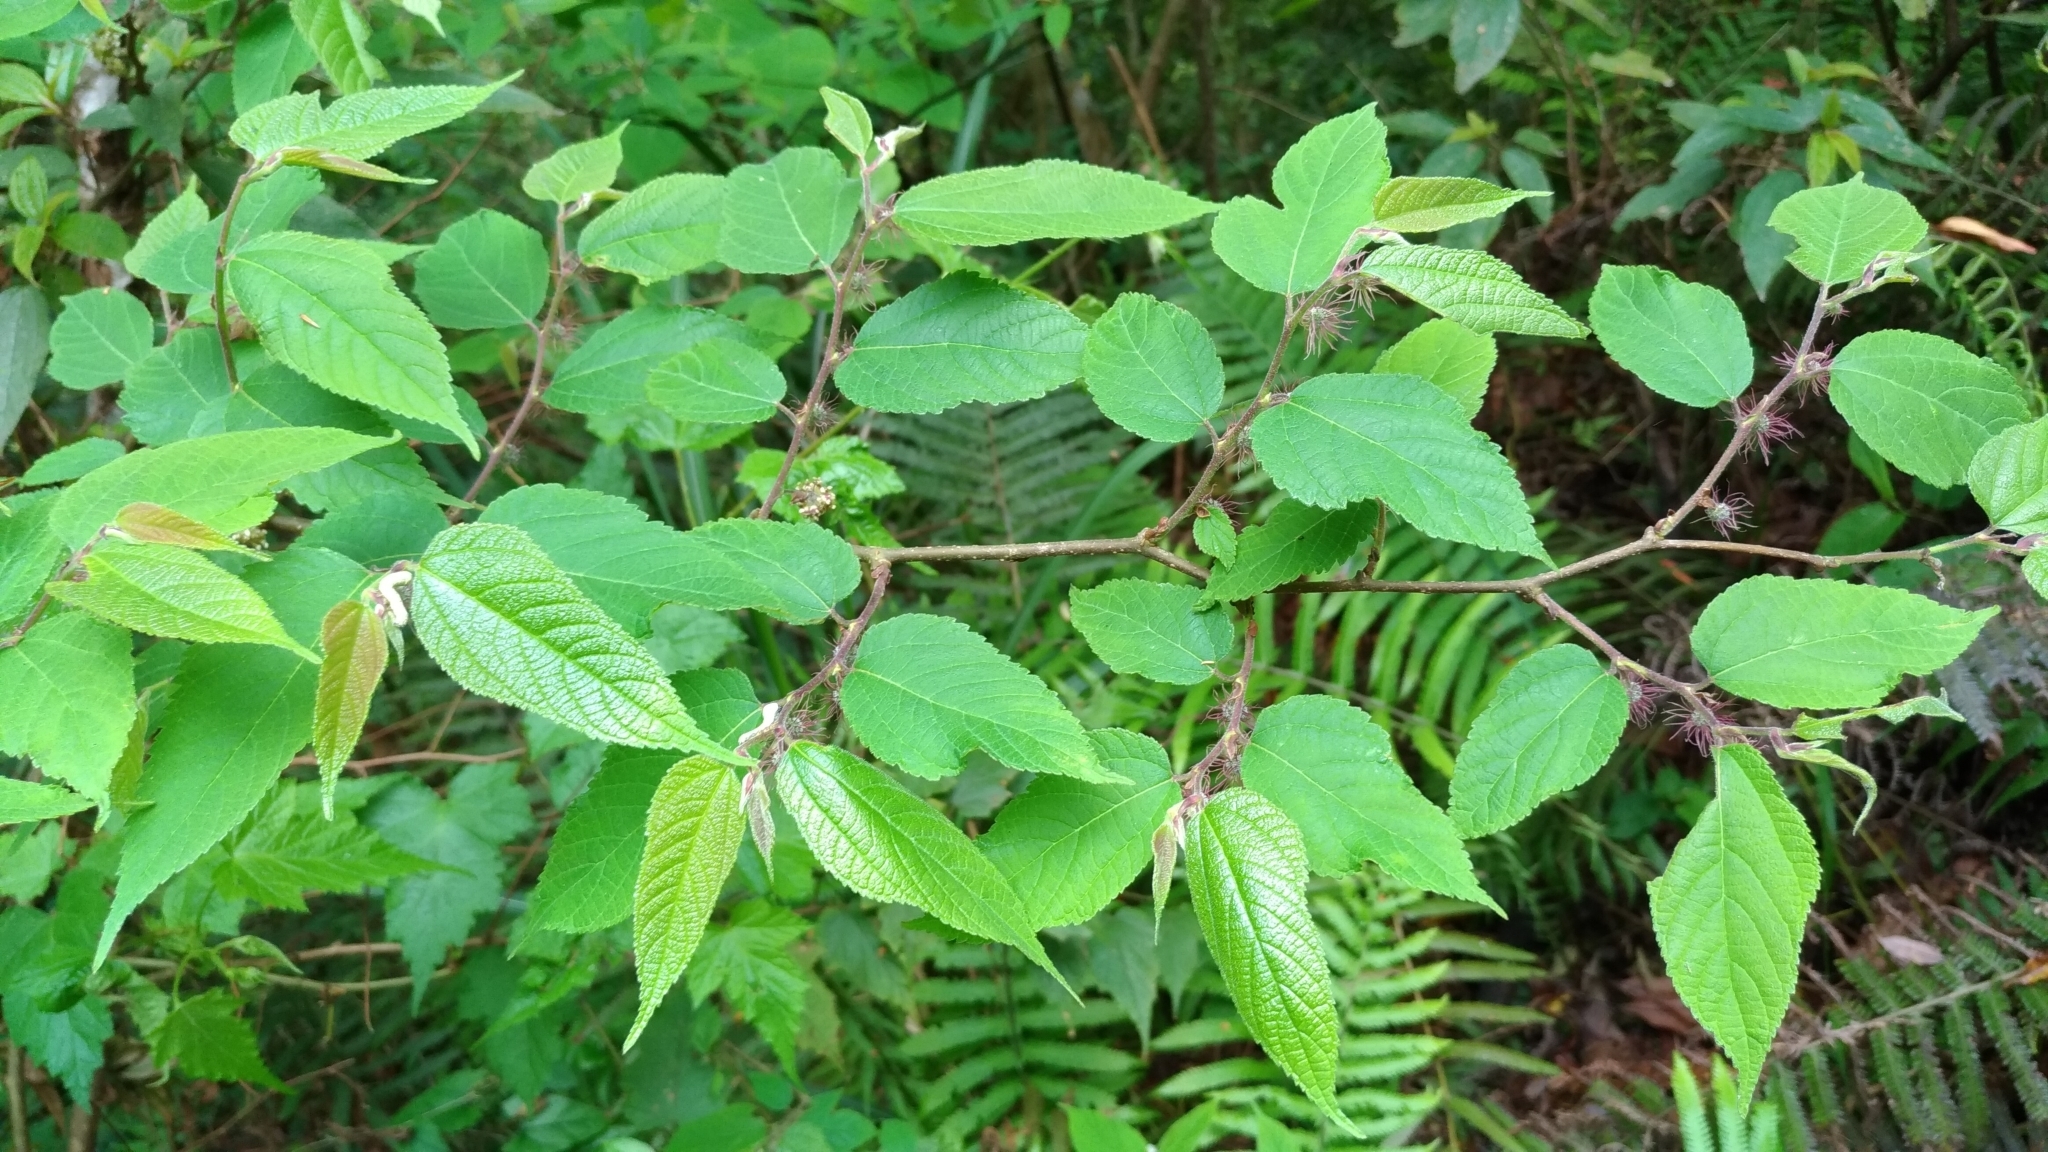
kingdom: Plantae
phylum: Tracheophyta
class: Magnoliopsida
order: Rosales
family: Moraceae
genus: Broussonetia
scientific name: Broussonetia monoica
